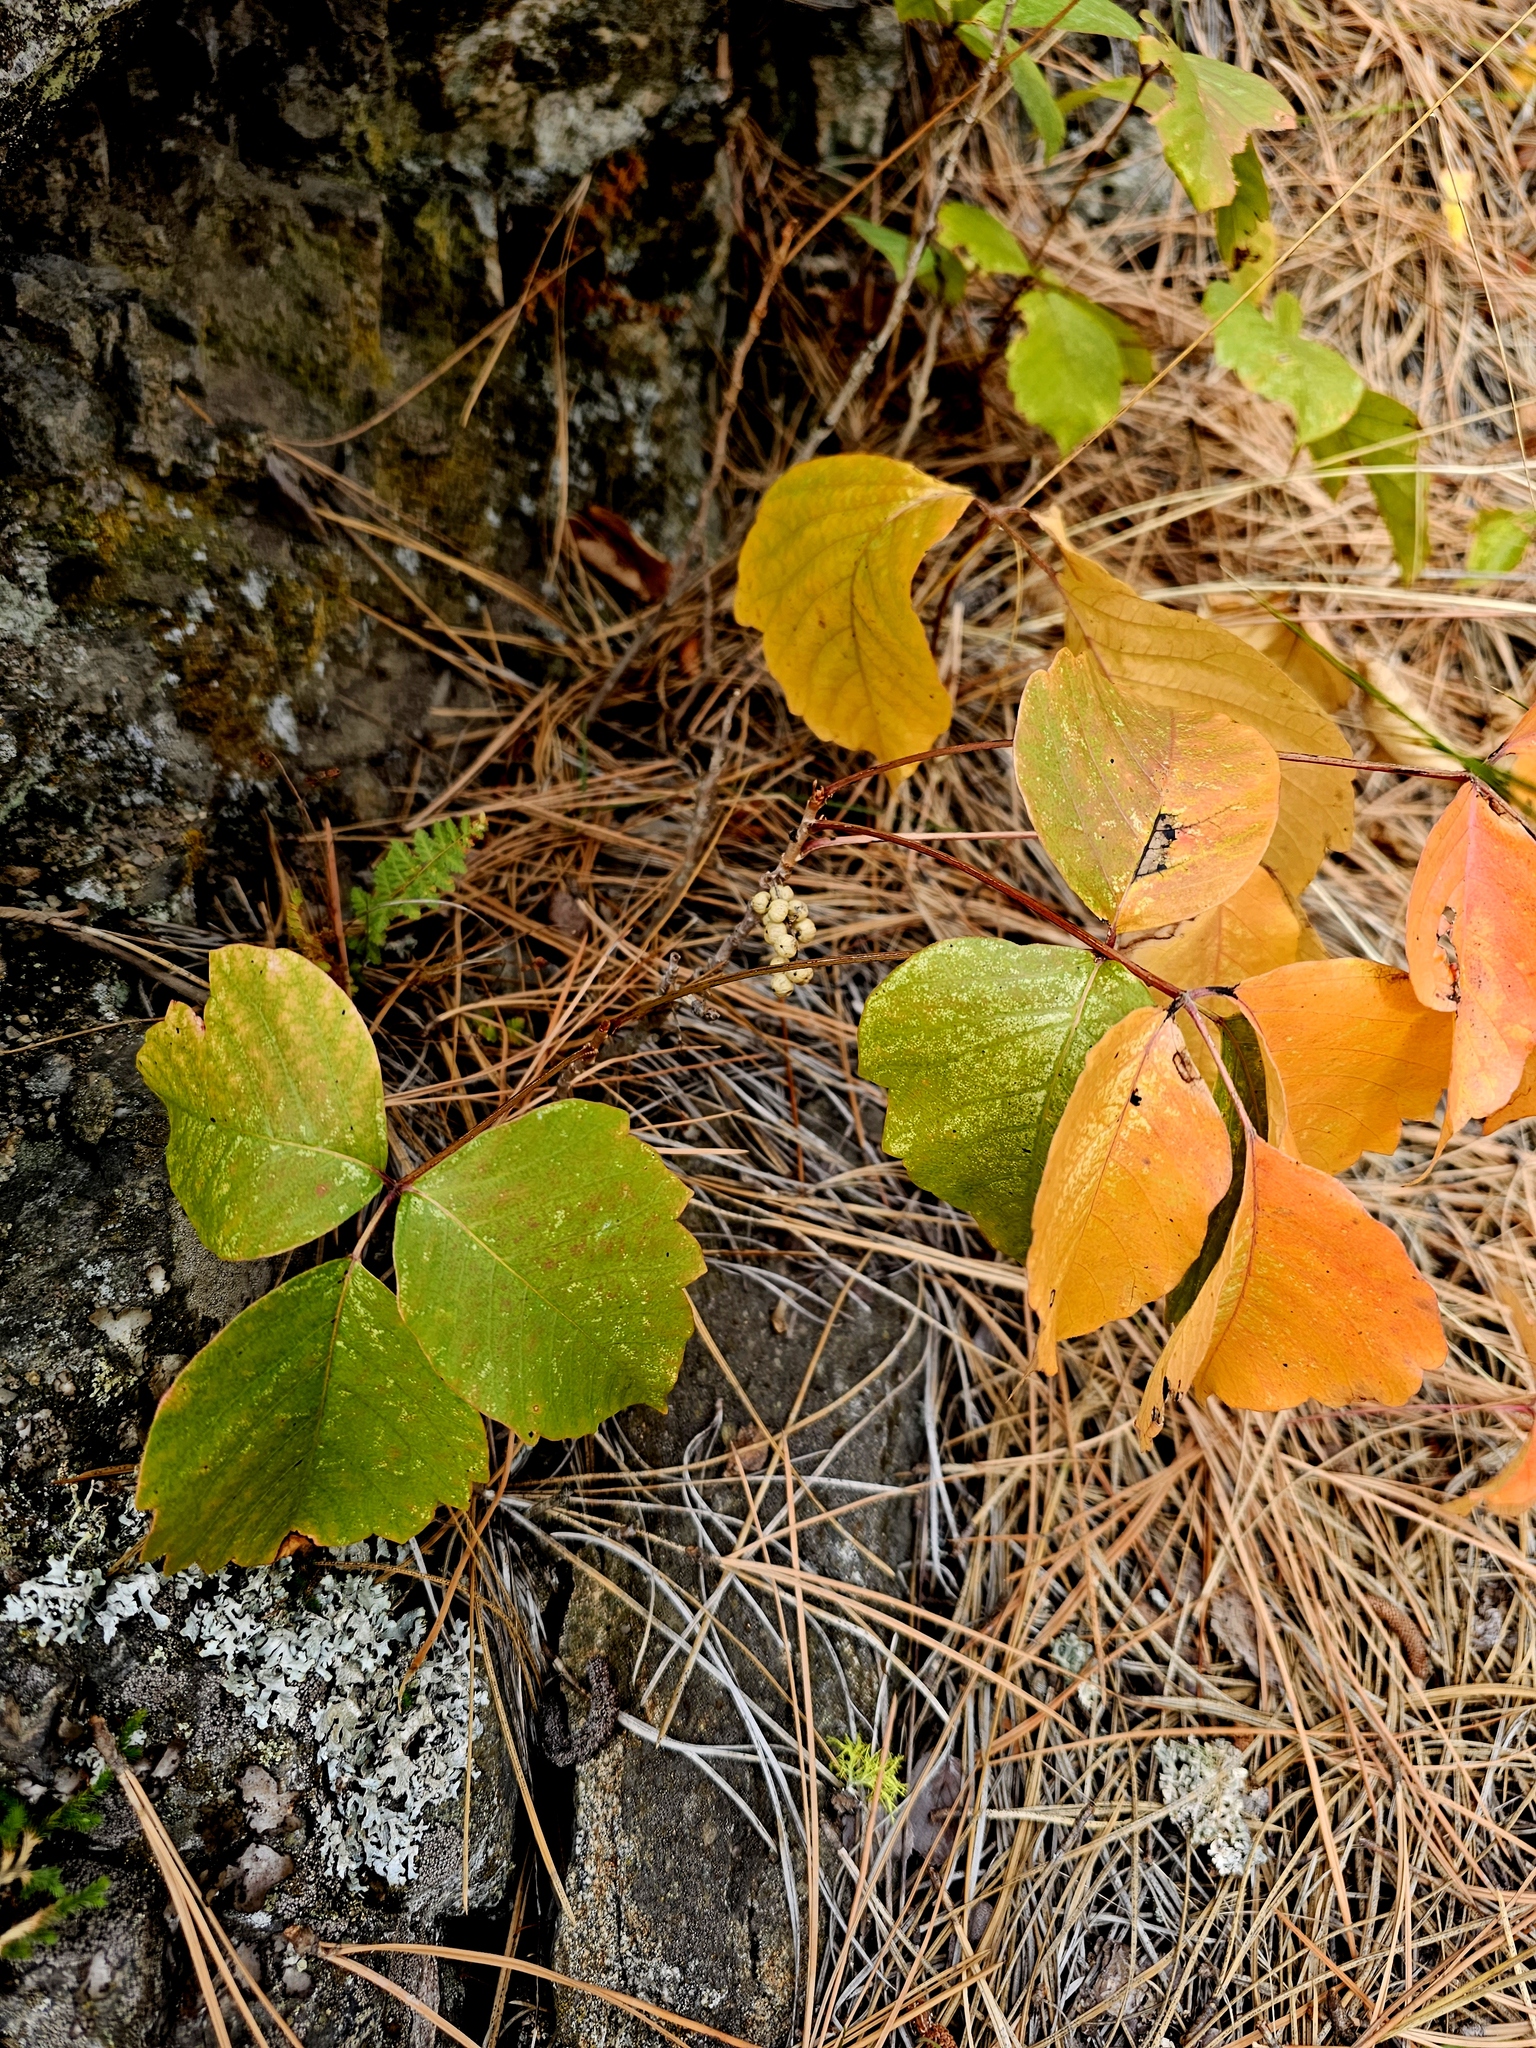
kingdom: Plantae
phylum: Tracheophyta
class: Magnoliopsida
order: Sapindales
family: Anacardiaceae
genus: Toxicodendron
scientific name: Toxicodendron rydbergii
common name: Rydberg's poison-ivy
